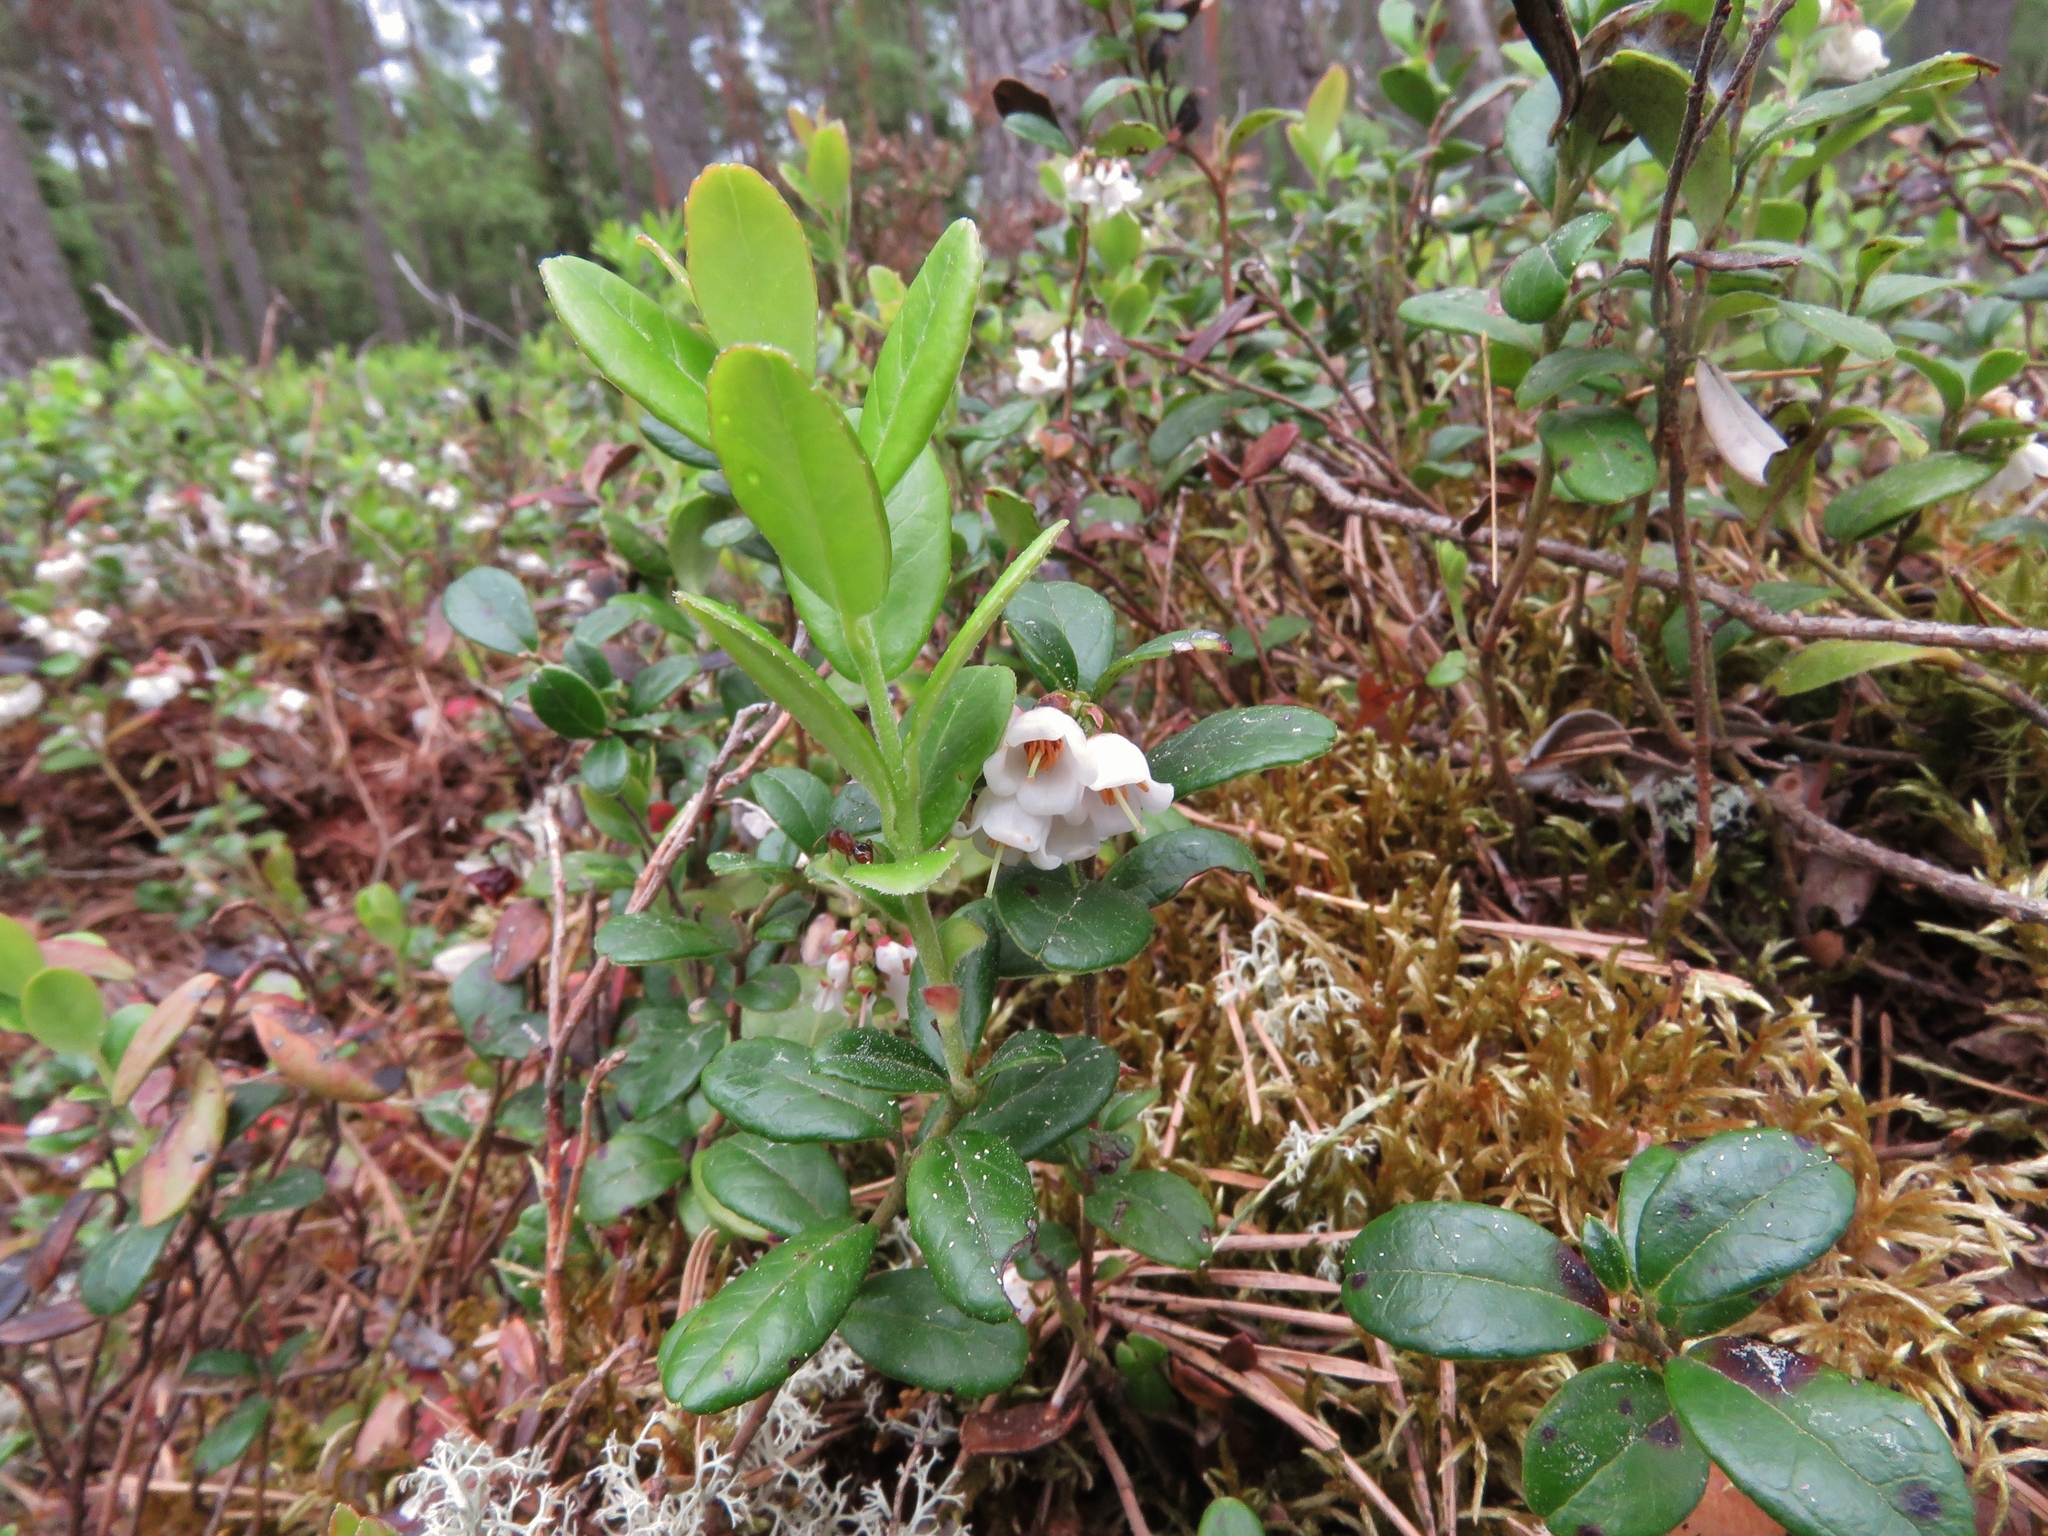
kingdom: Plantae
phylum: Tracheophyta
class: Magnoliopsida
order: Ericales
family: Ericaceae
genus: Vaccinium
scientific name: Vaccinium vitis-idaea
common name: Cowberry
